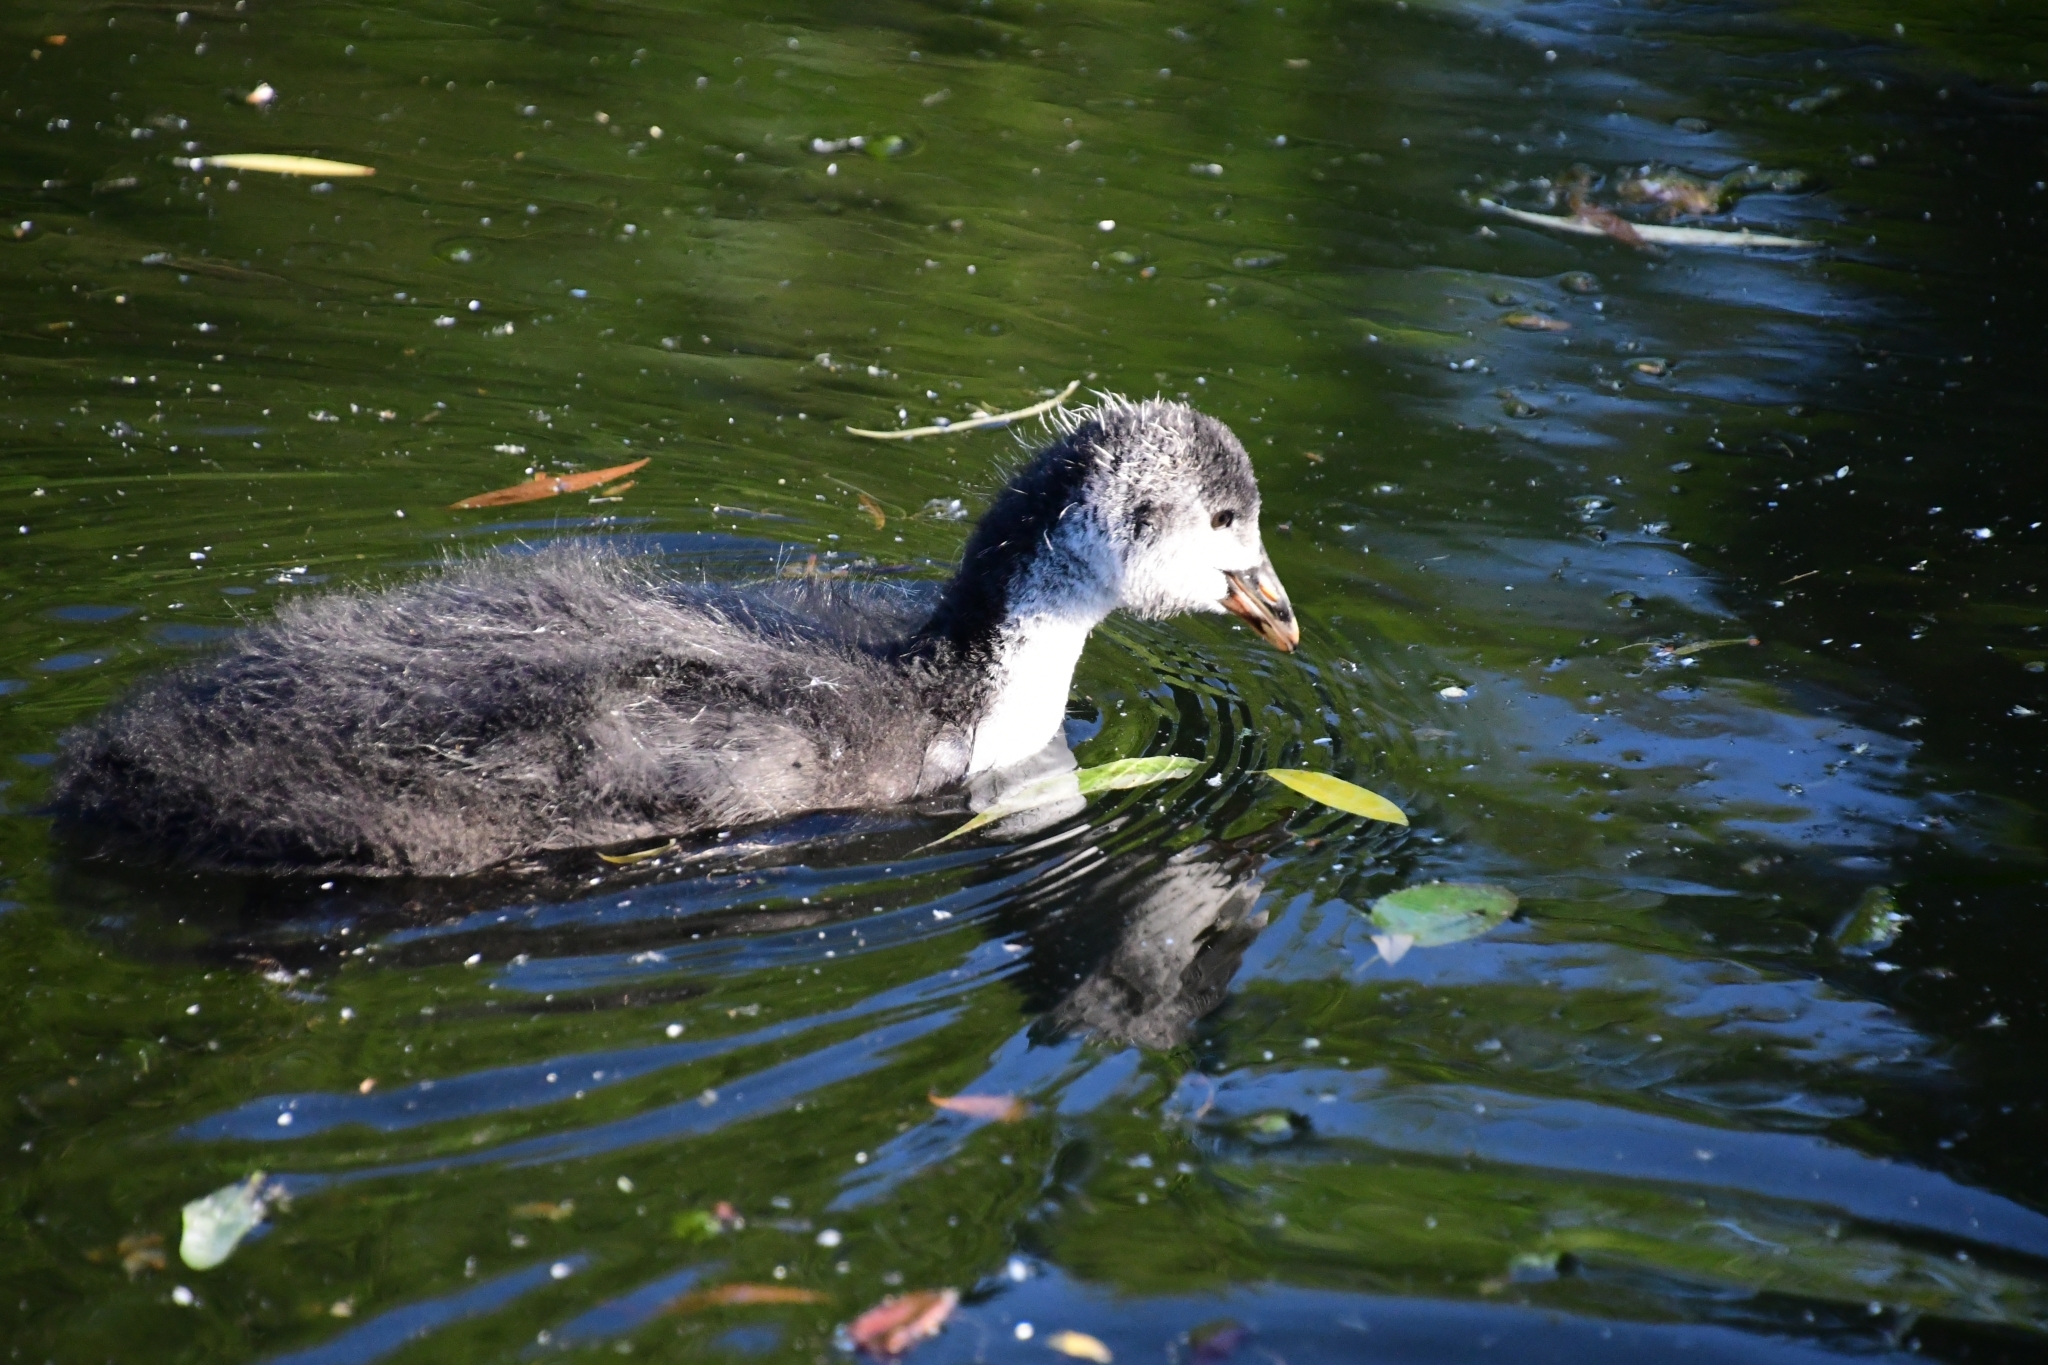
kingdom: Animalia
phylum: Chordata
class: Aves
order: Gruiformes
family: Rallidae
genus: Fulica
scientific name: Fulica atra
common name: Eurasian coot
